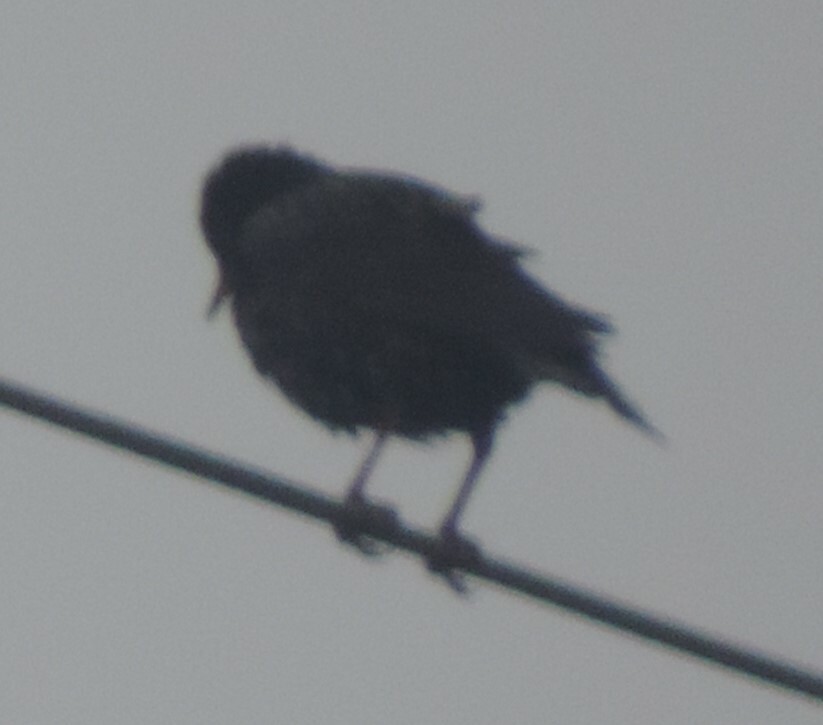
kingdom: Animalia
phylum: Chordata
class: Aves
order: Passeriformes
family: Sturnidae
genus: Sturnus
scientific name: Sturnus vulgaris
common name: Common starling
